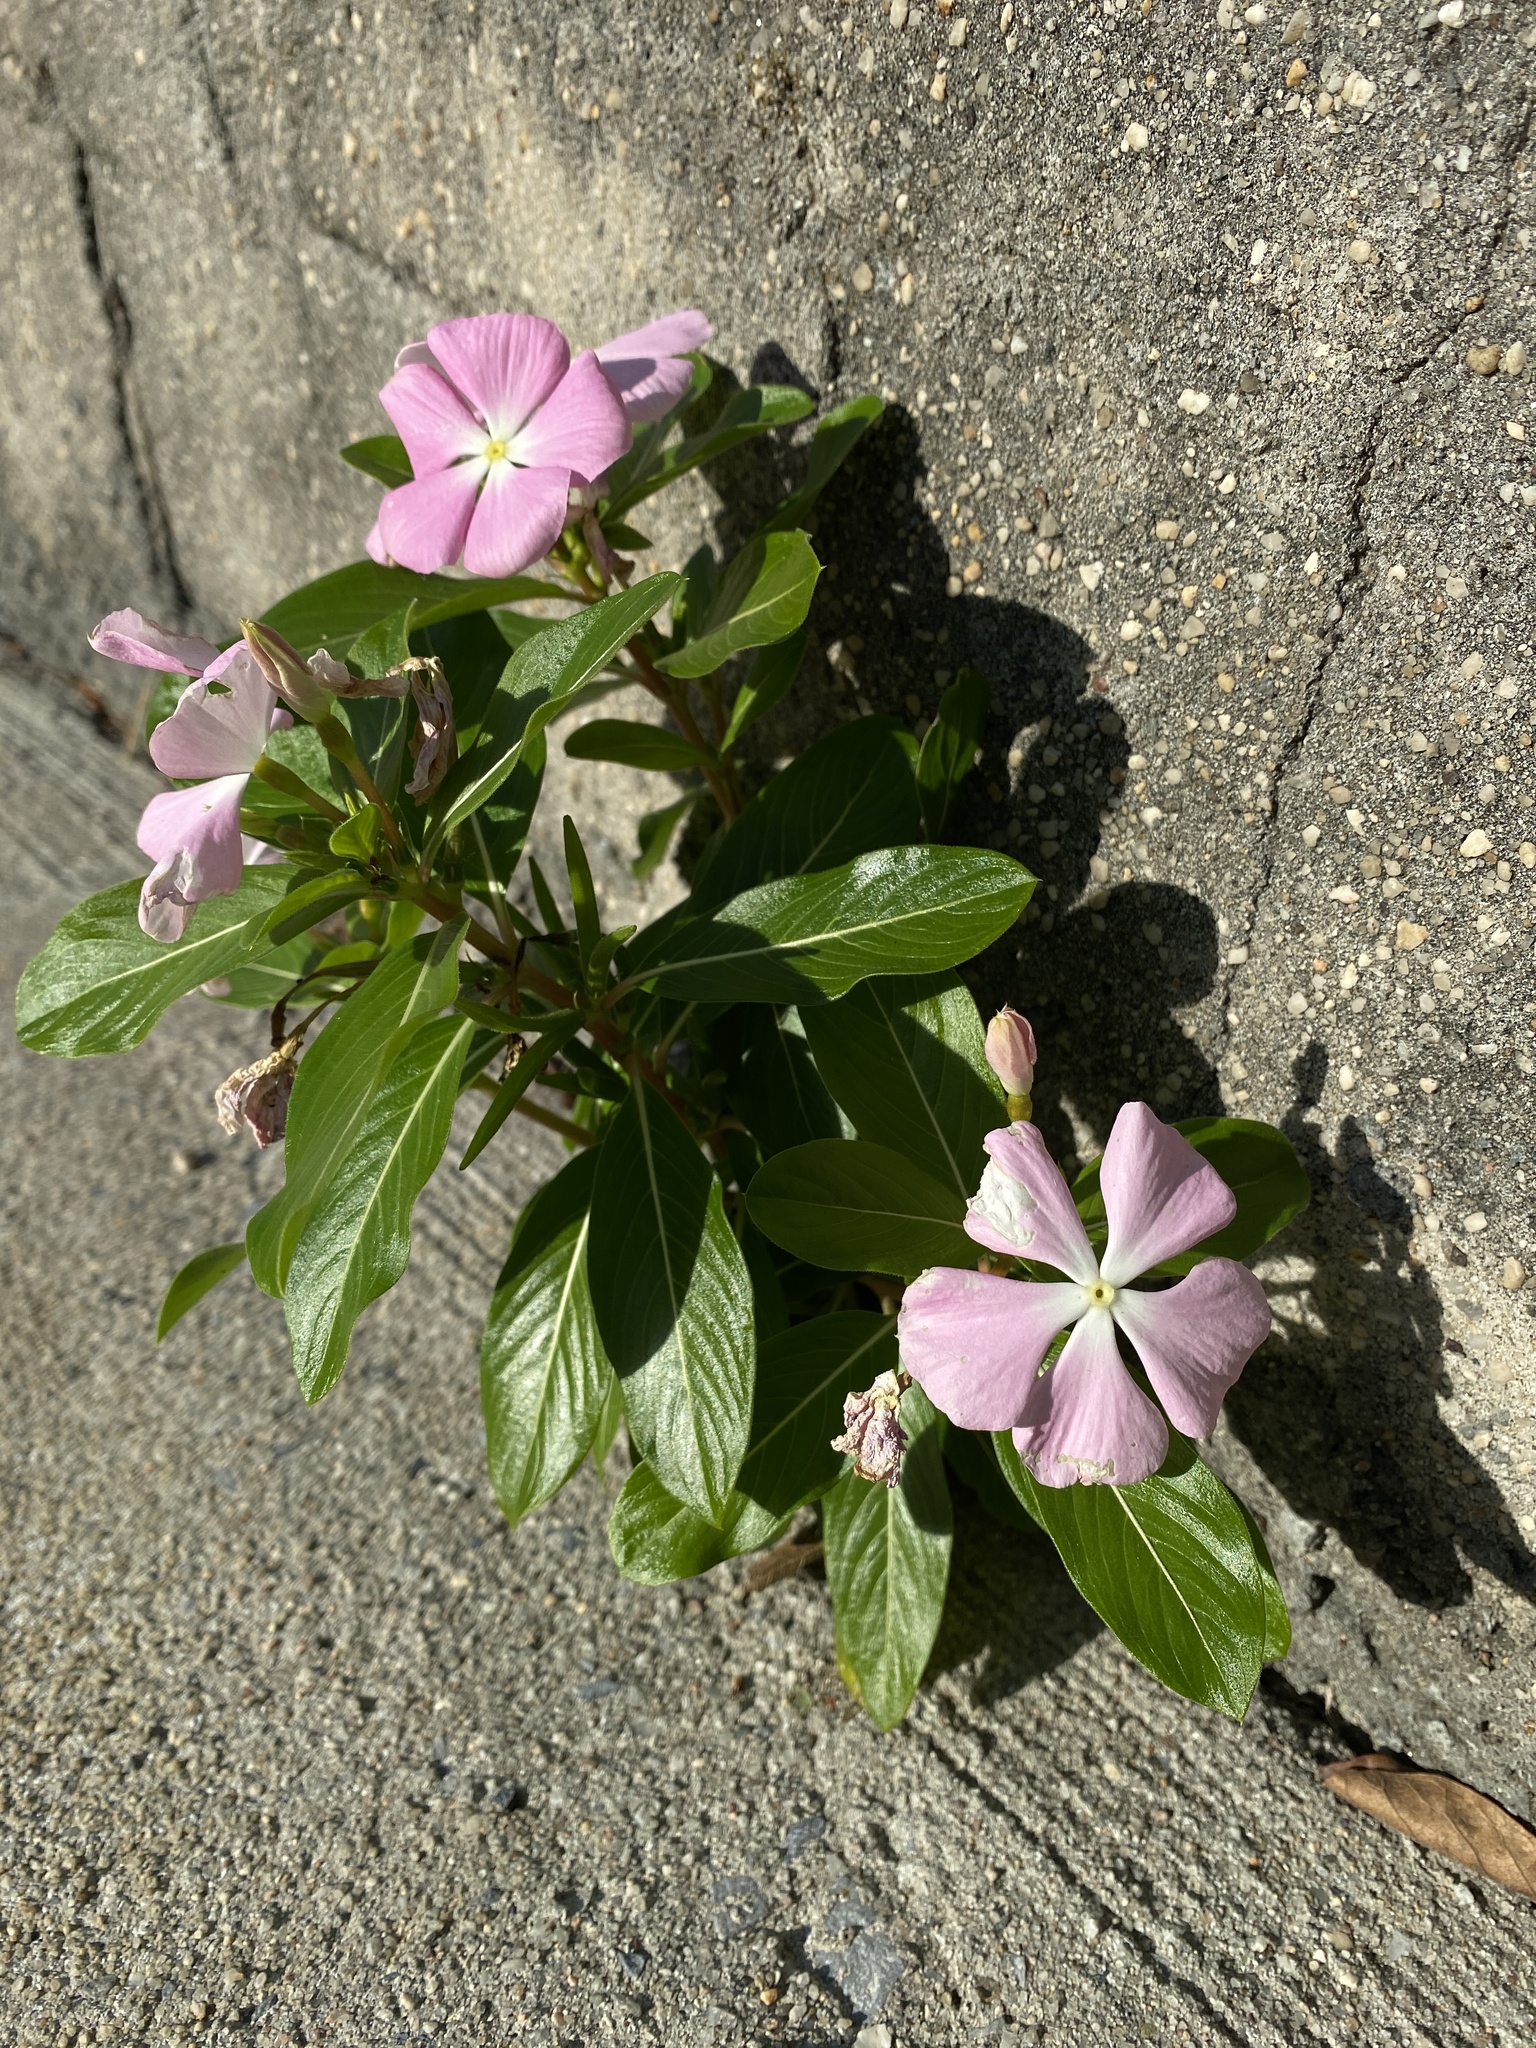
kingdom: Plantae
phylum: Tracheophyta
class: Magnoliopsida
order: Gentianales
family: Apocynaceae
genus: Catharanthus
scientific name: Catharanthus roseus
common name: Madagascar periwinkle
